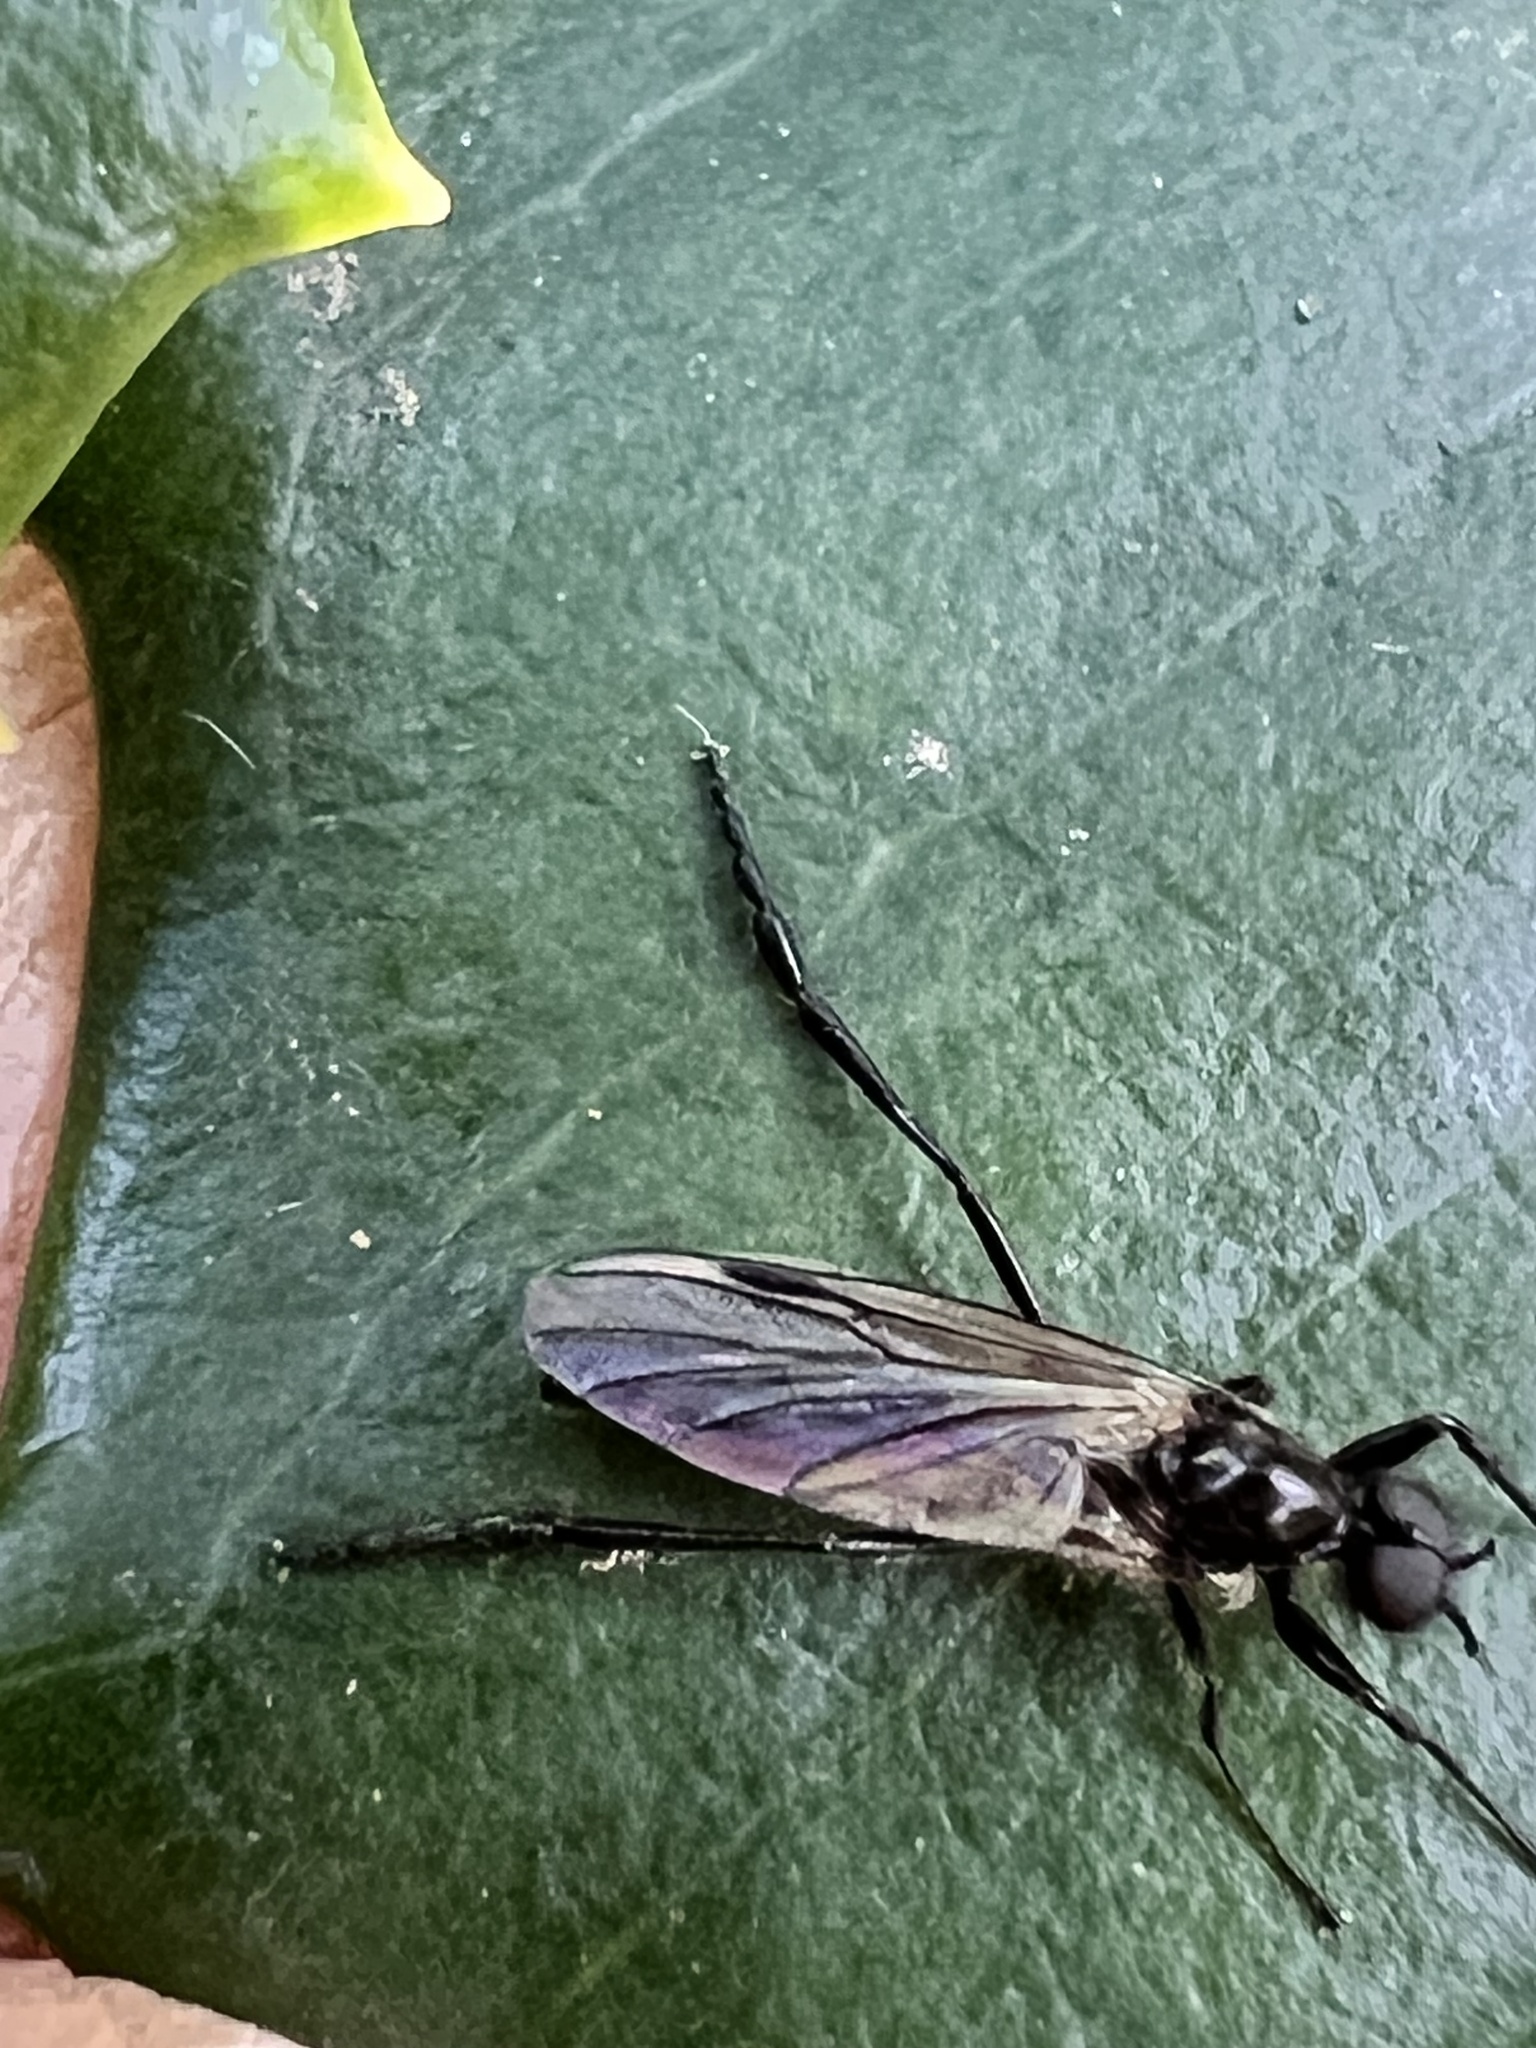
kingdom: Animalia
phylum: Arthropoda
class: Insecta
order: Diptera
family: Bibionidae
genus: Bibio
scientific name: Bibio longipes
